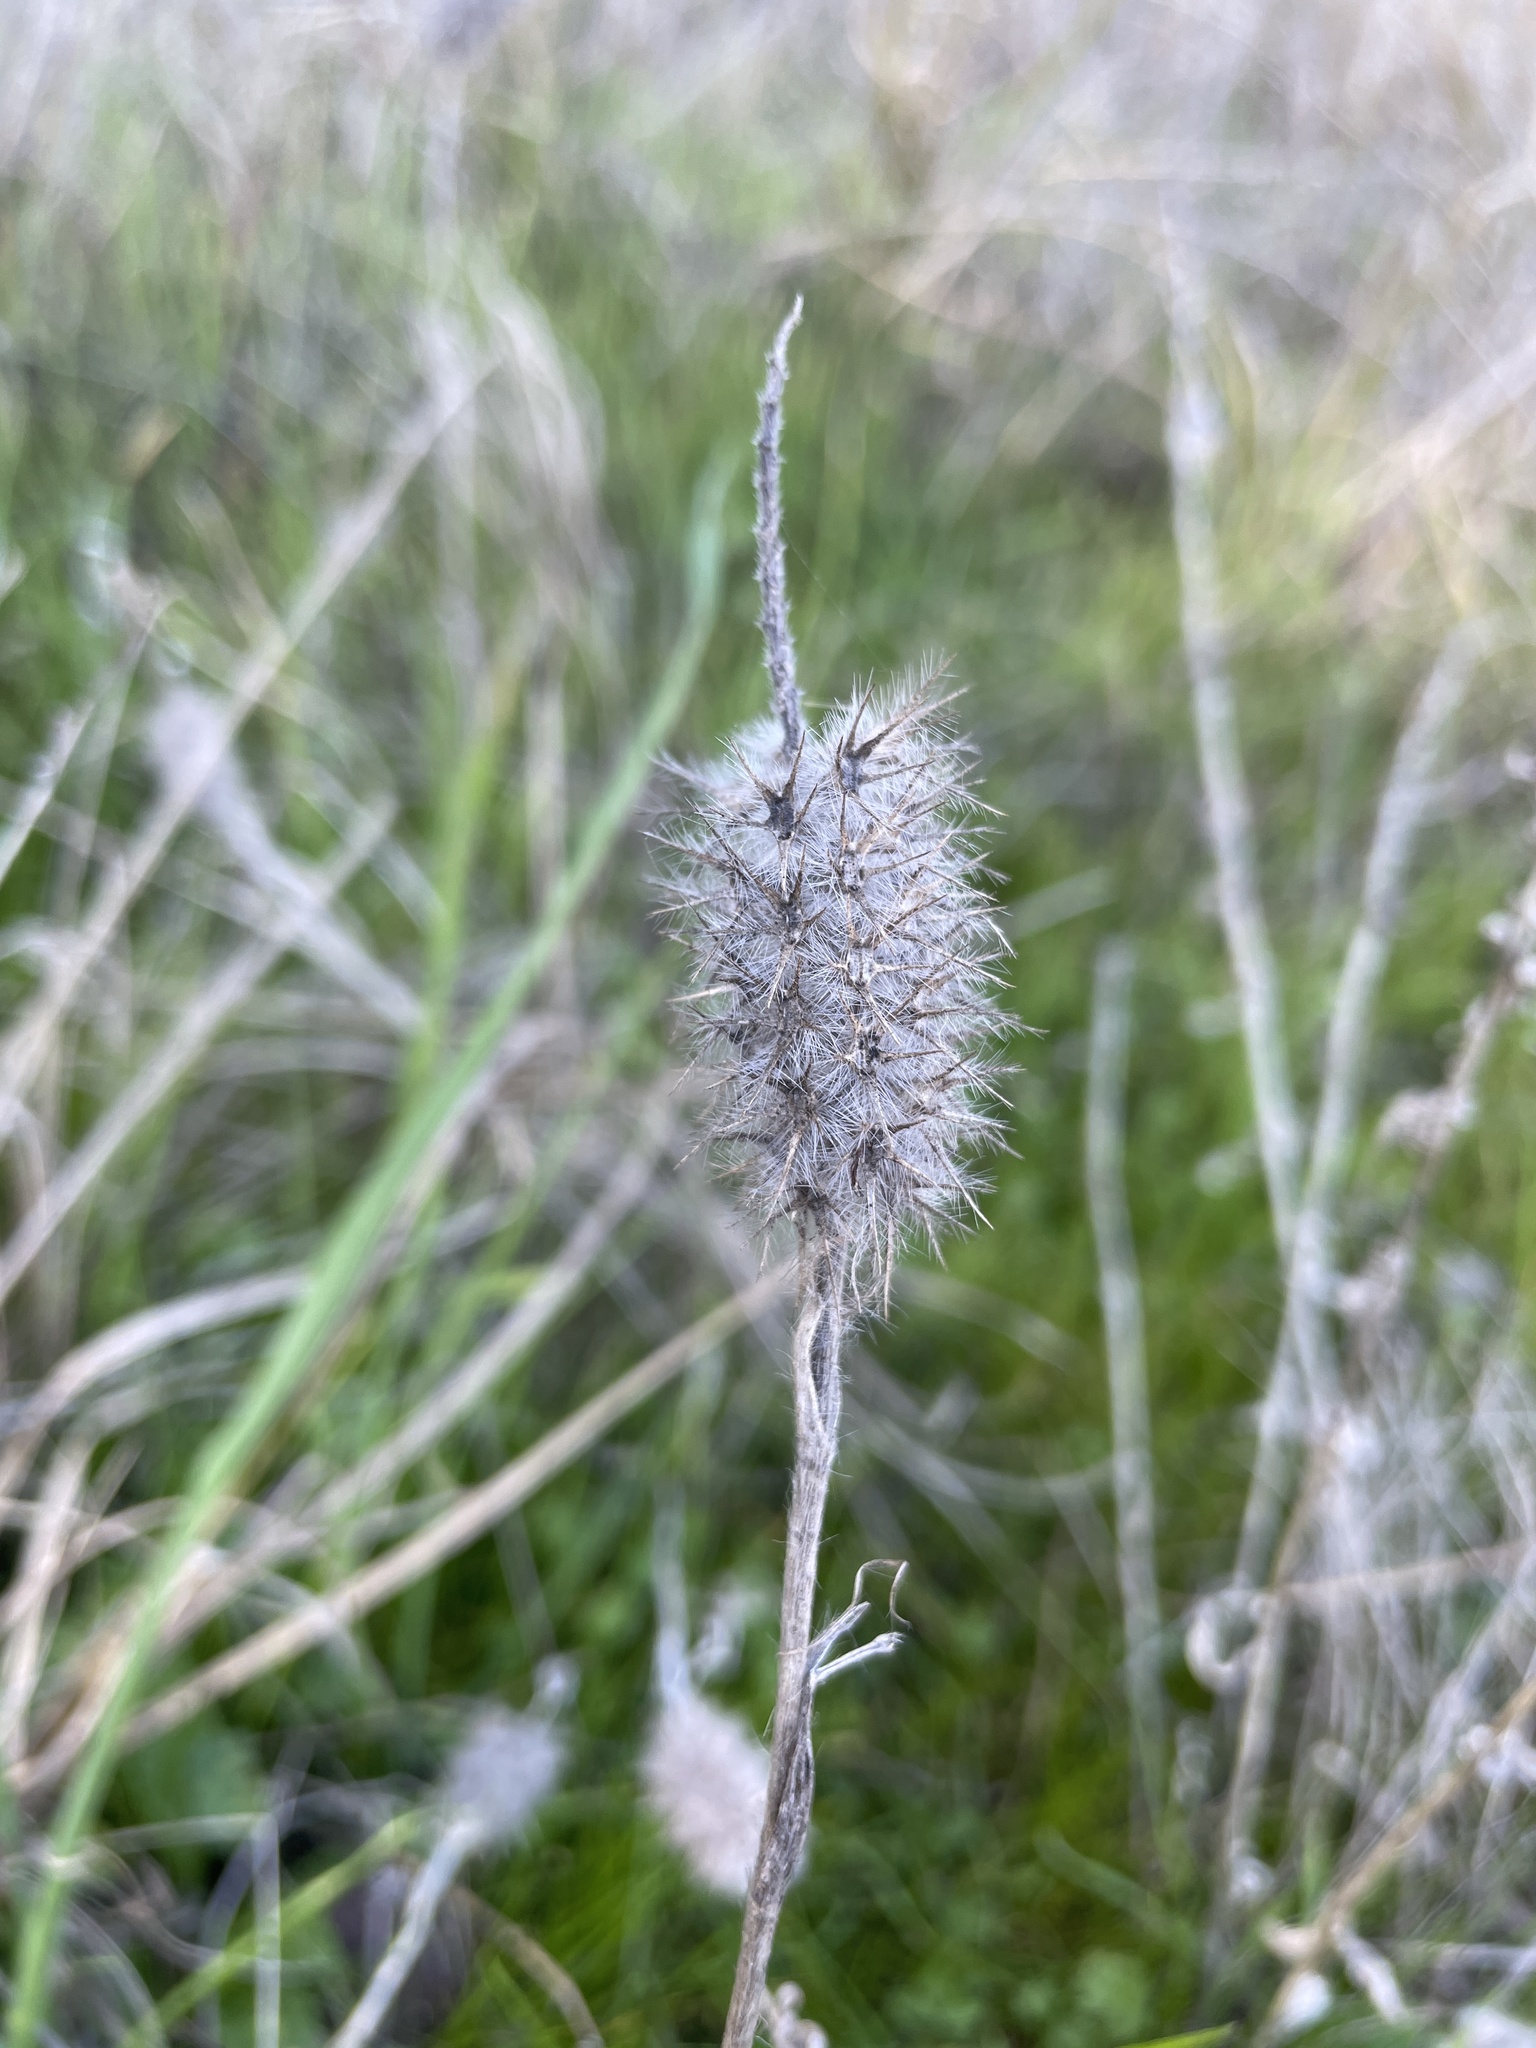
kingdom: Plantae
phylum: Tracheophyta
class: Magnoliopsida
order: Fabales
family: Fabaceae
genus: Trifolium
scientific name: Trifolium angustifolium
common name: Narrow clover
